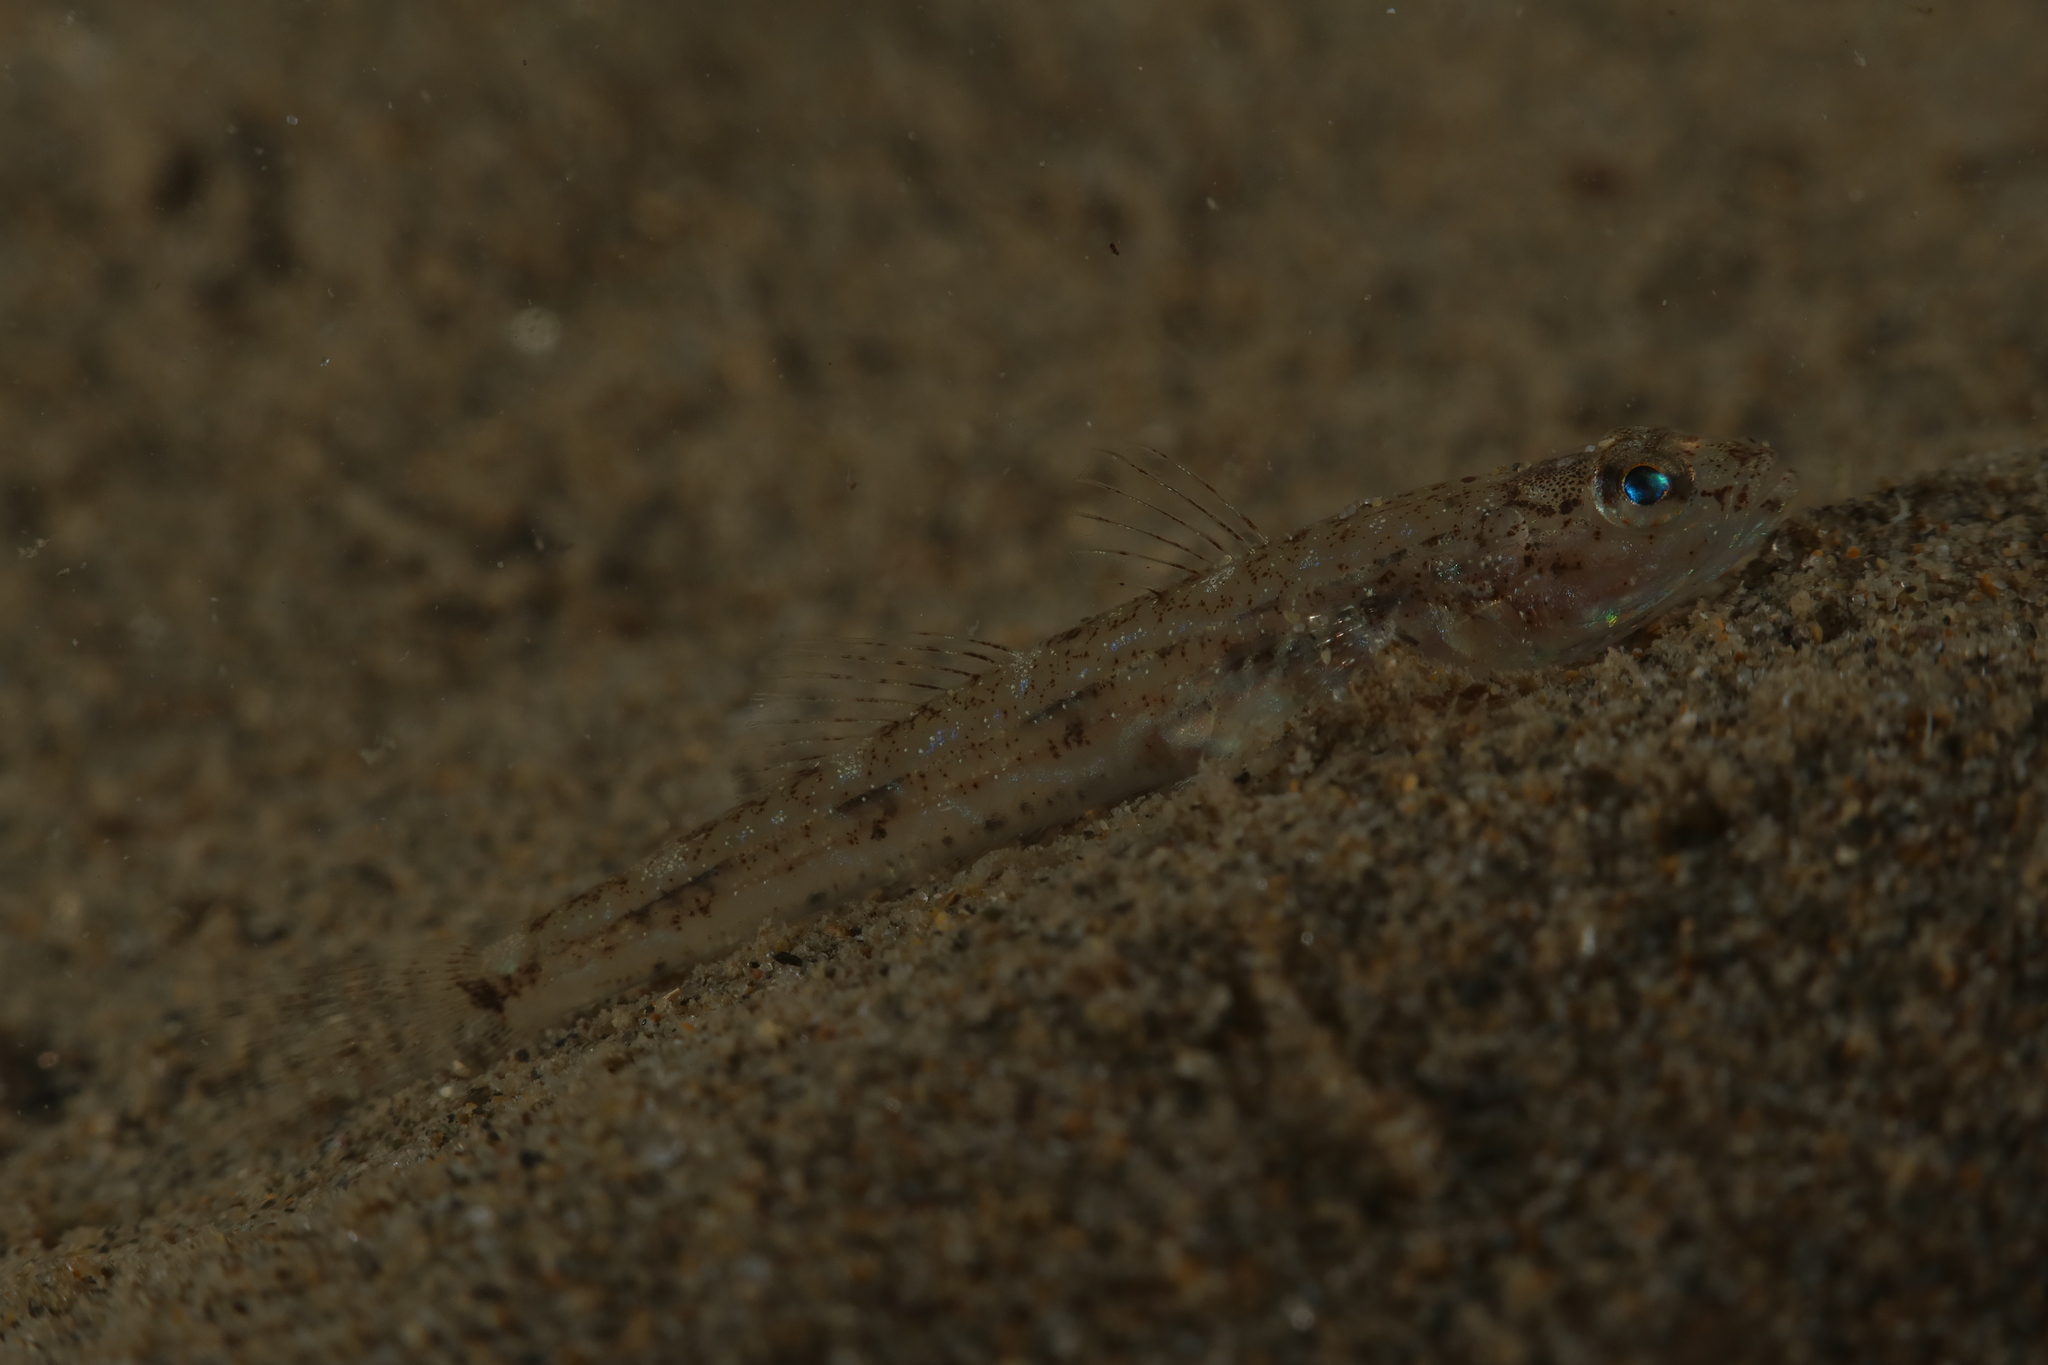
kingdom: Animalia
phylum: Chordata
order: Perciformes
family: Gobiidae
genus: Pomatoschistus
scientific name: Pomatoschistus marmoratus
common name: Marbled goby
